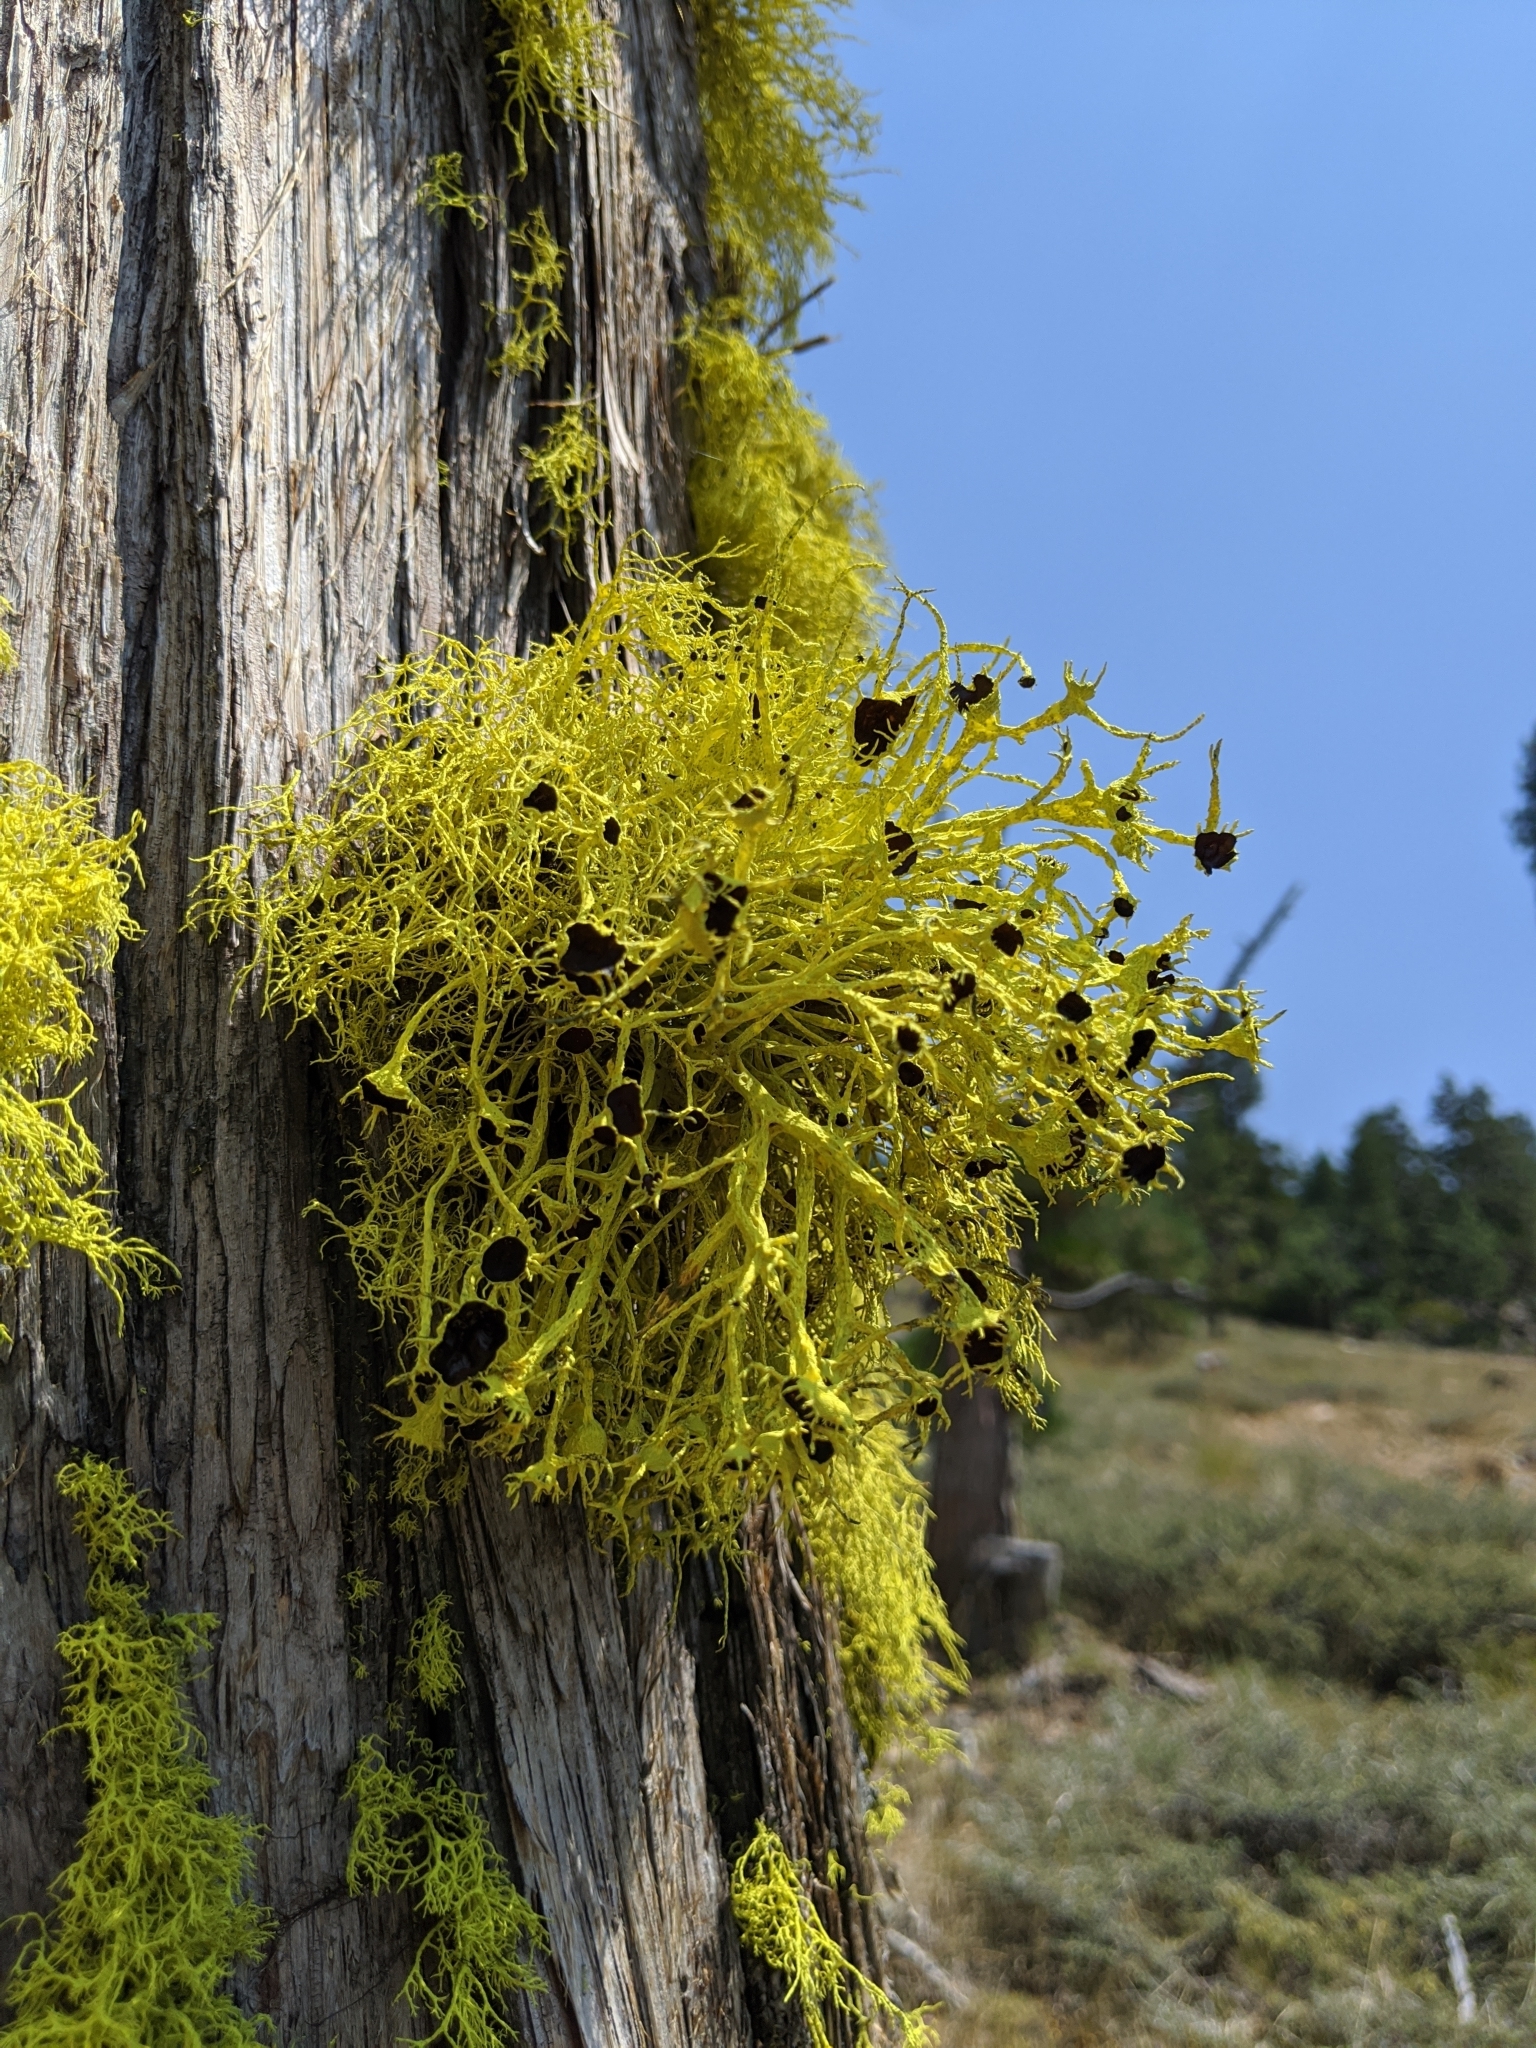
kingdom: Fungi
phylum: Ascomycota
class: Lecanoromycetes
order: Lecanorales
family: Parmeliaceae
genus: Letharia
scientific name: Letharia columbiana
